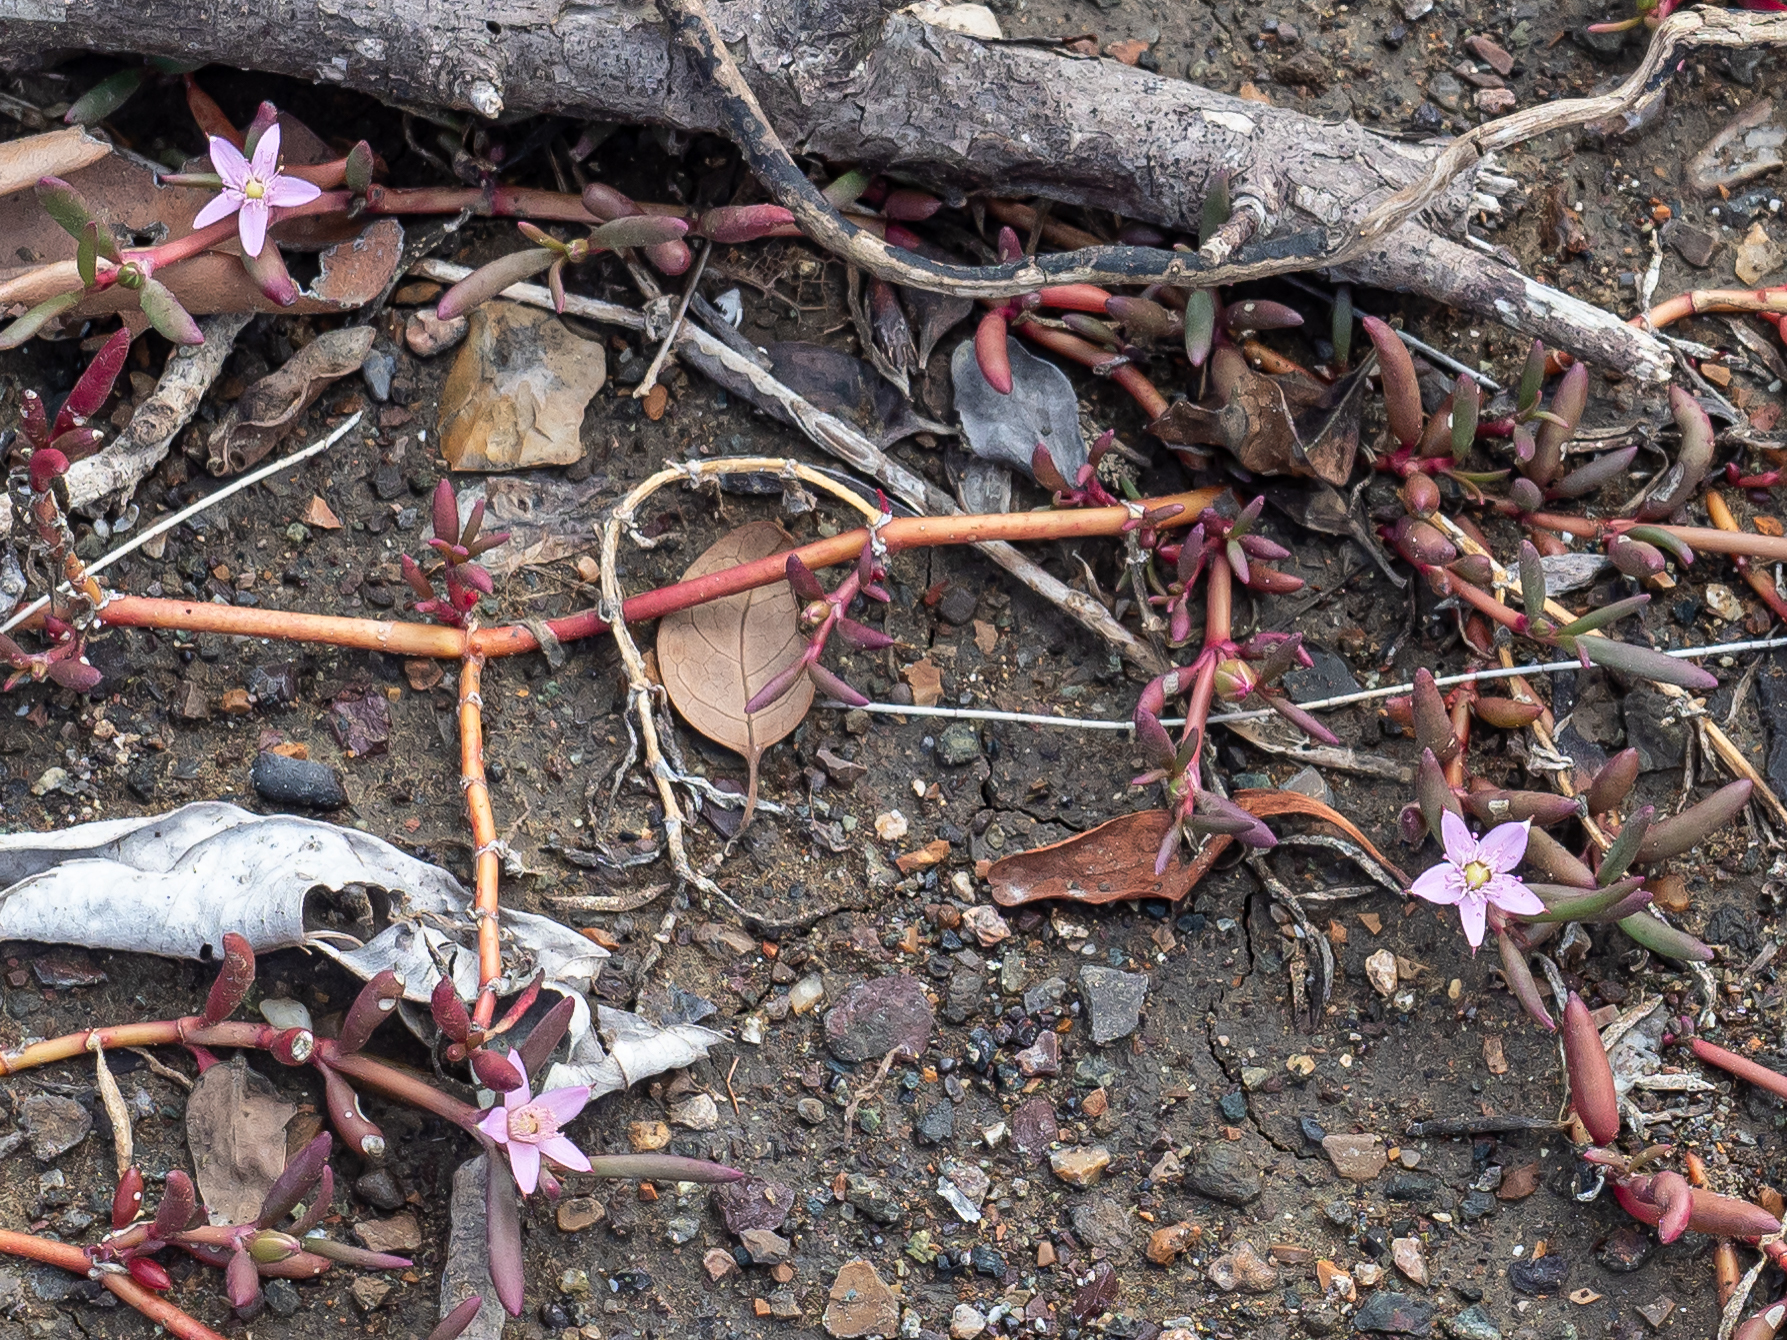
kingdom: Plantae
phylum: Tracheophyta
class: Magnoliopsida
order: Caryophyllales
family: Aizoaceae
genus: Sesuvium
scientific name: Sesuvium portulacastrum
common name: Sea-purslane
